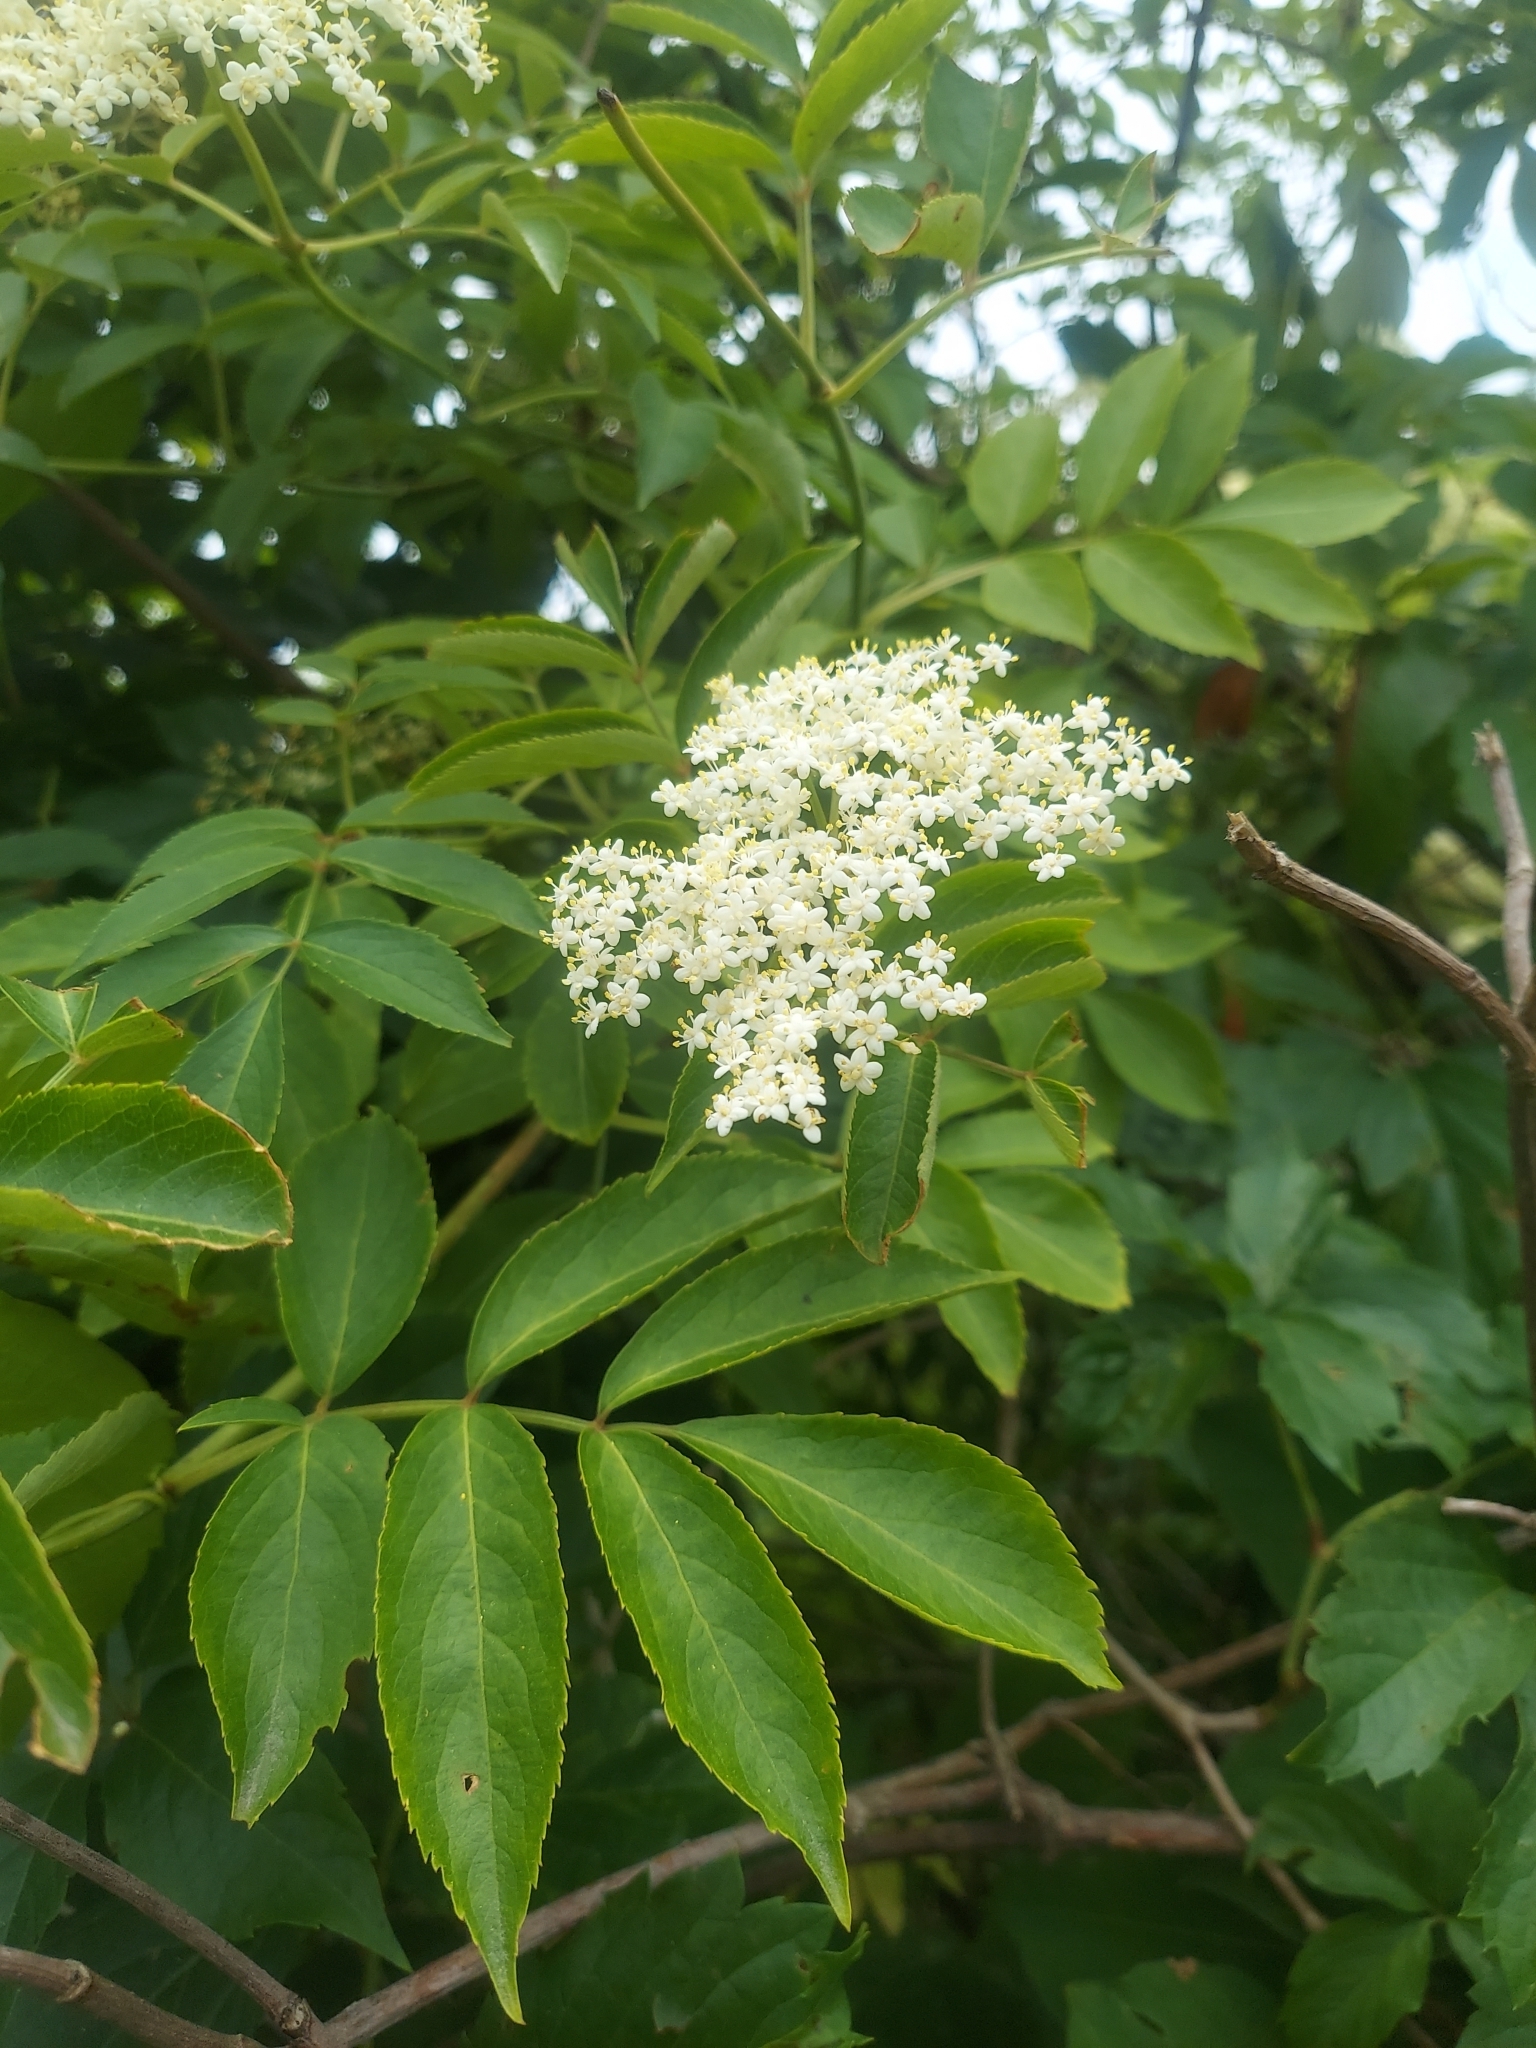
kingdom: Plantae
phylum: Tracheophyta
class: Magnoliopsida
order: Dipsacales
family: Viburnaceae
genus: Sambucus
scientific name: Sambucus canadensis
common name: American elder
